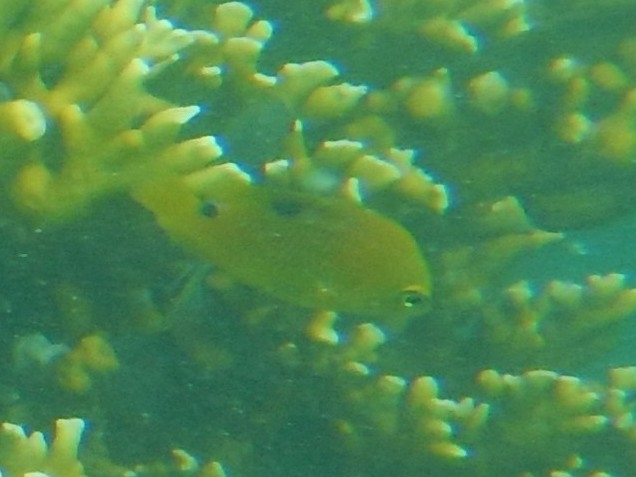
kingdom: Animalia
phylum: Chordata
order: Perciformes
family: Pomacentridae
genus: Stegastes
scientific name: Stegastes planifrons
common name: Threespot damselfish
